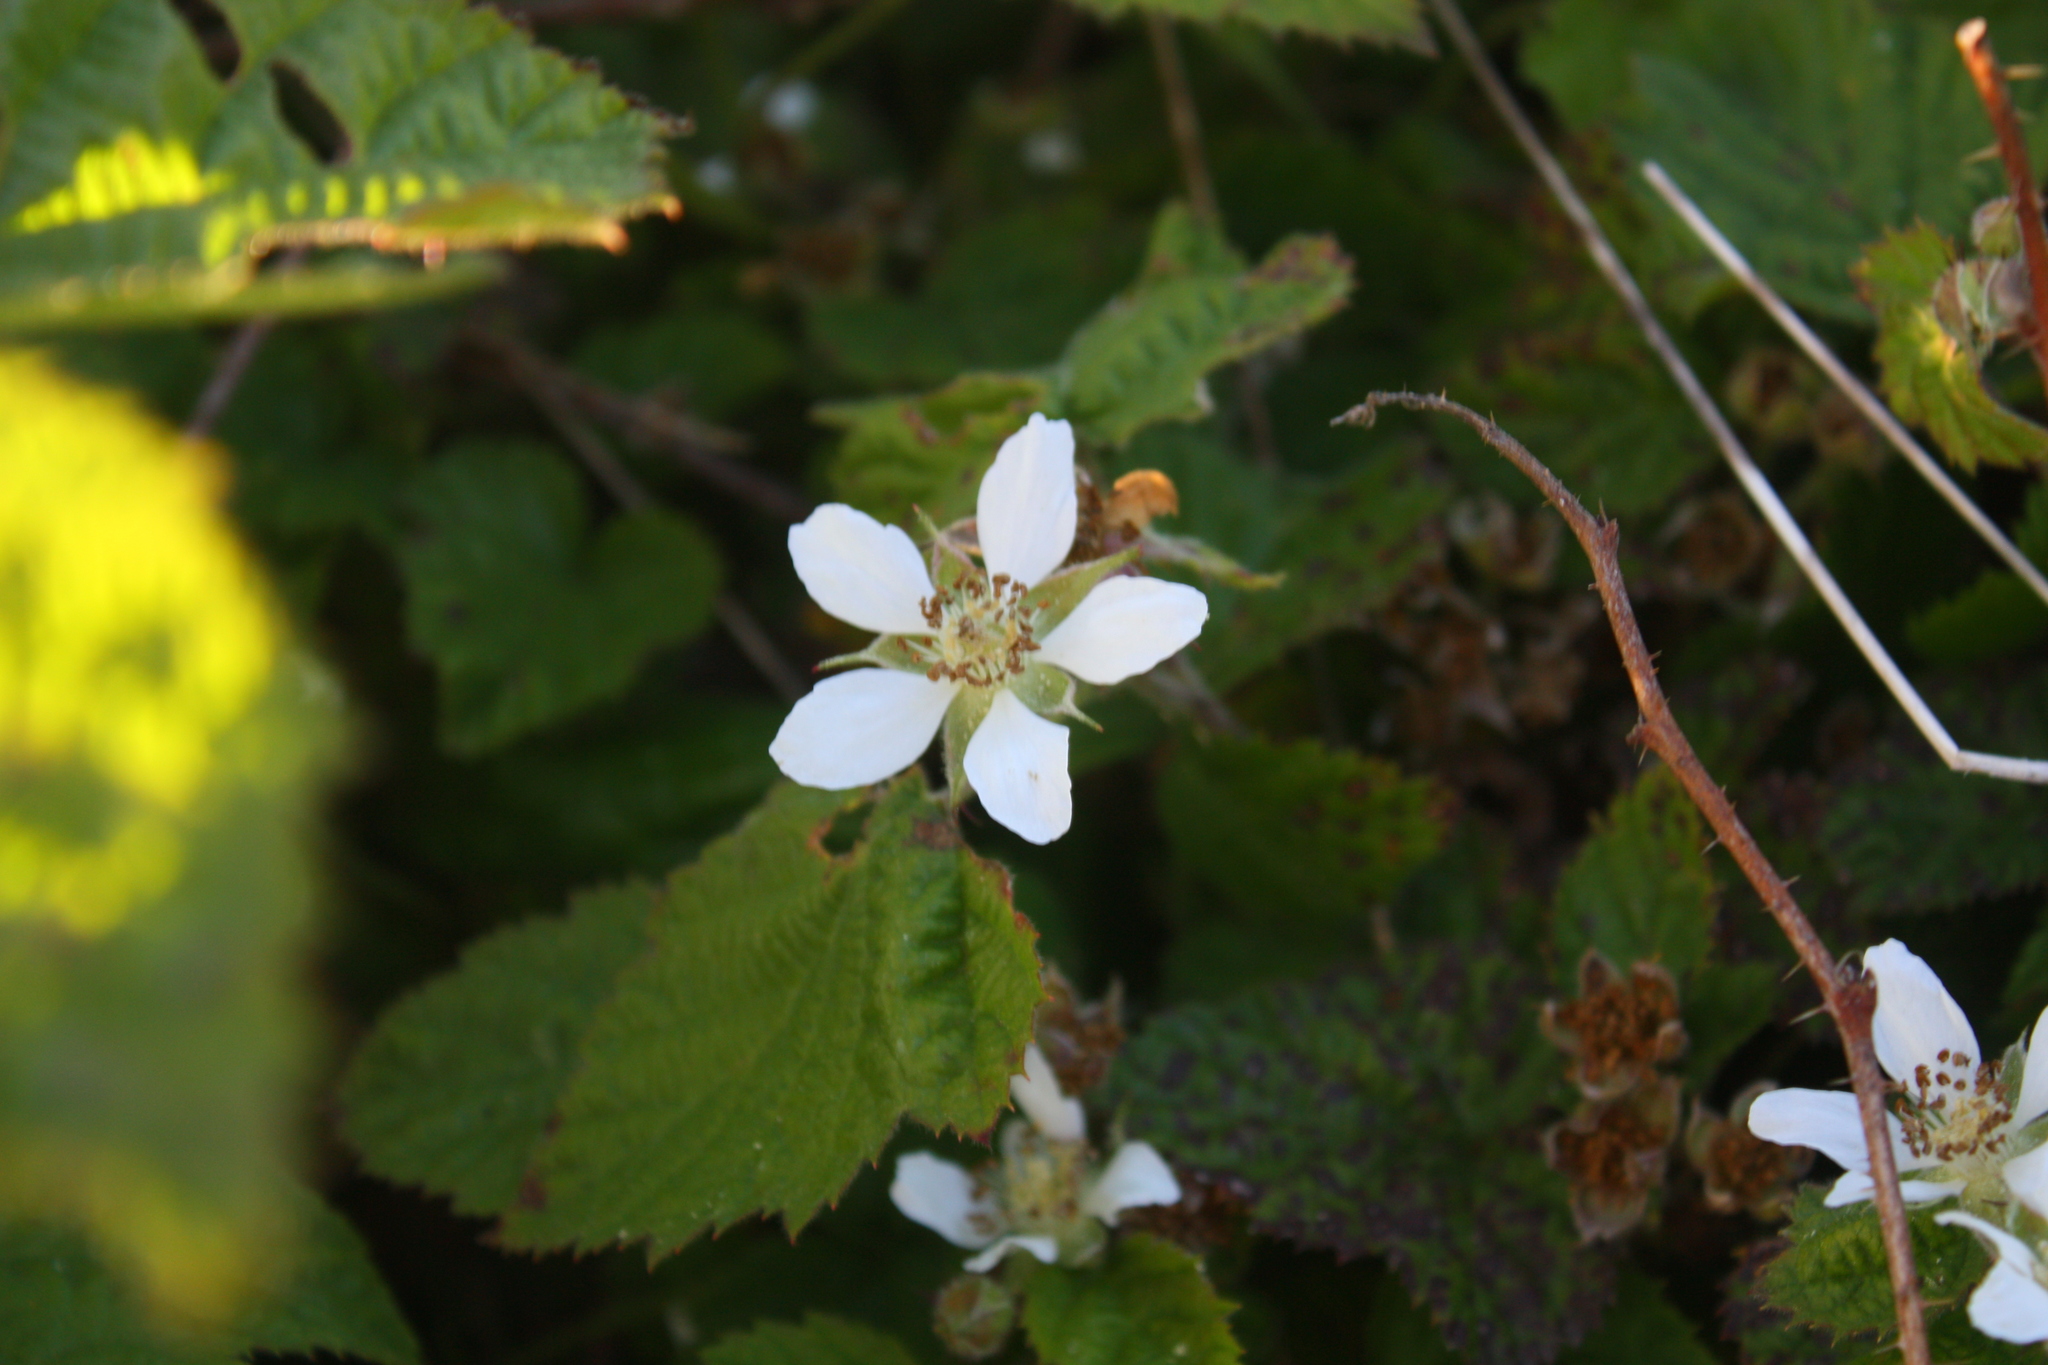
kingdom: Plantae
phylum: Tracheophyta
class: Magnoliopsida
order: Rosales
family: Rosaceae
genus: Rubus
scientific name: Rubus ursinus
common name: Pacific blackberry
